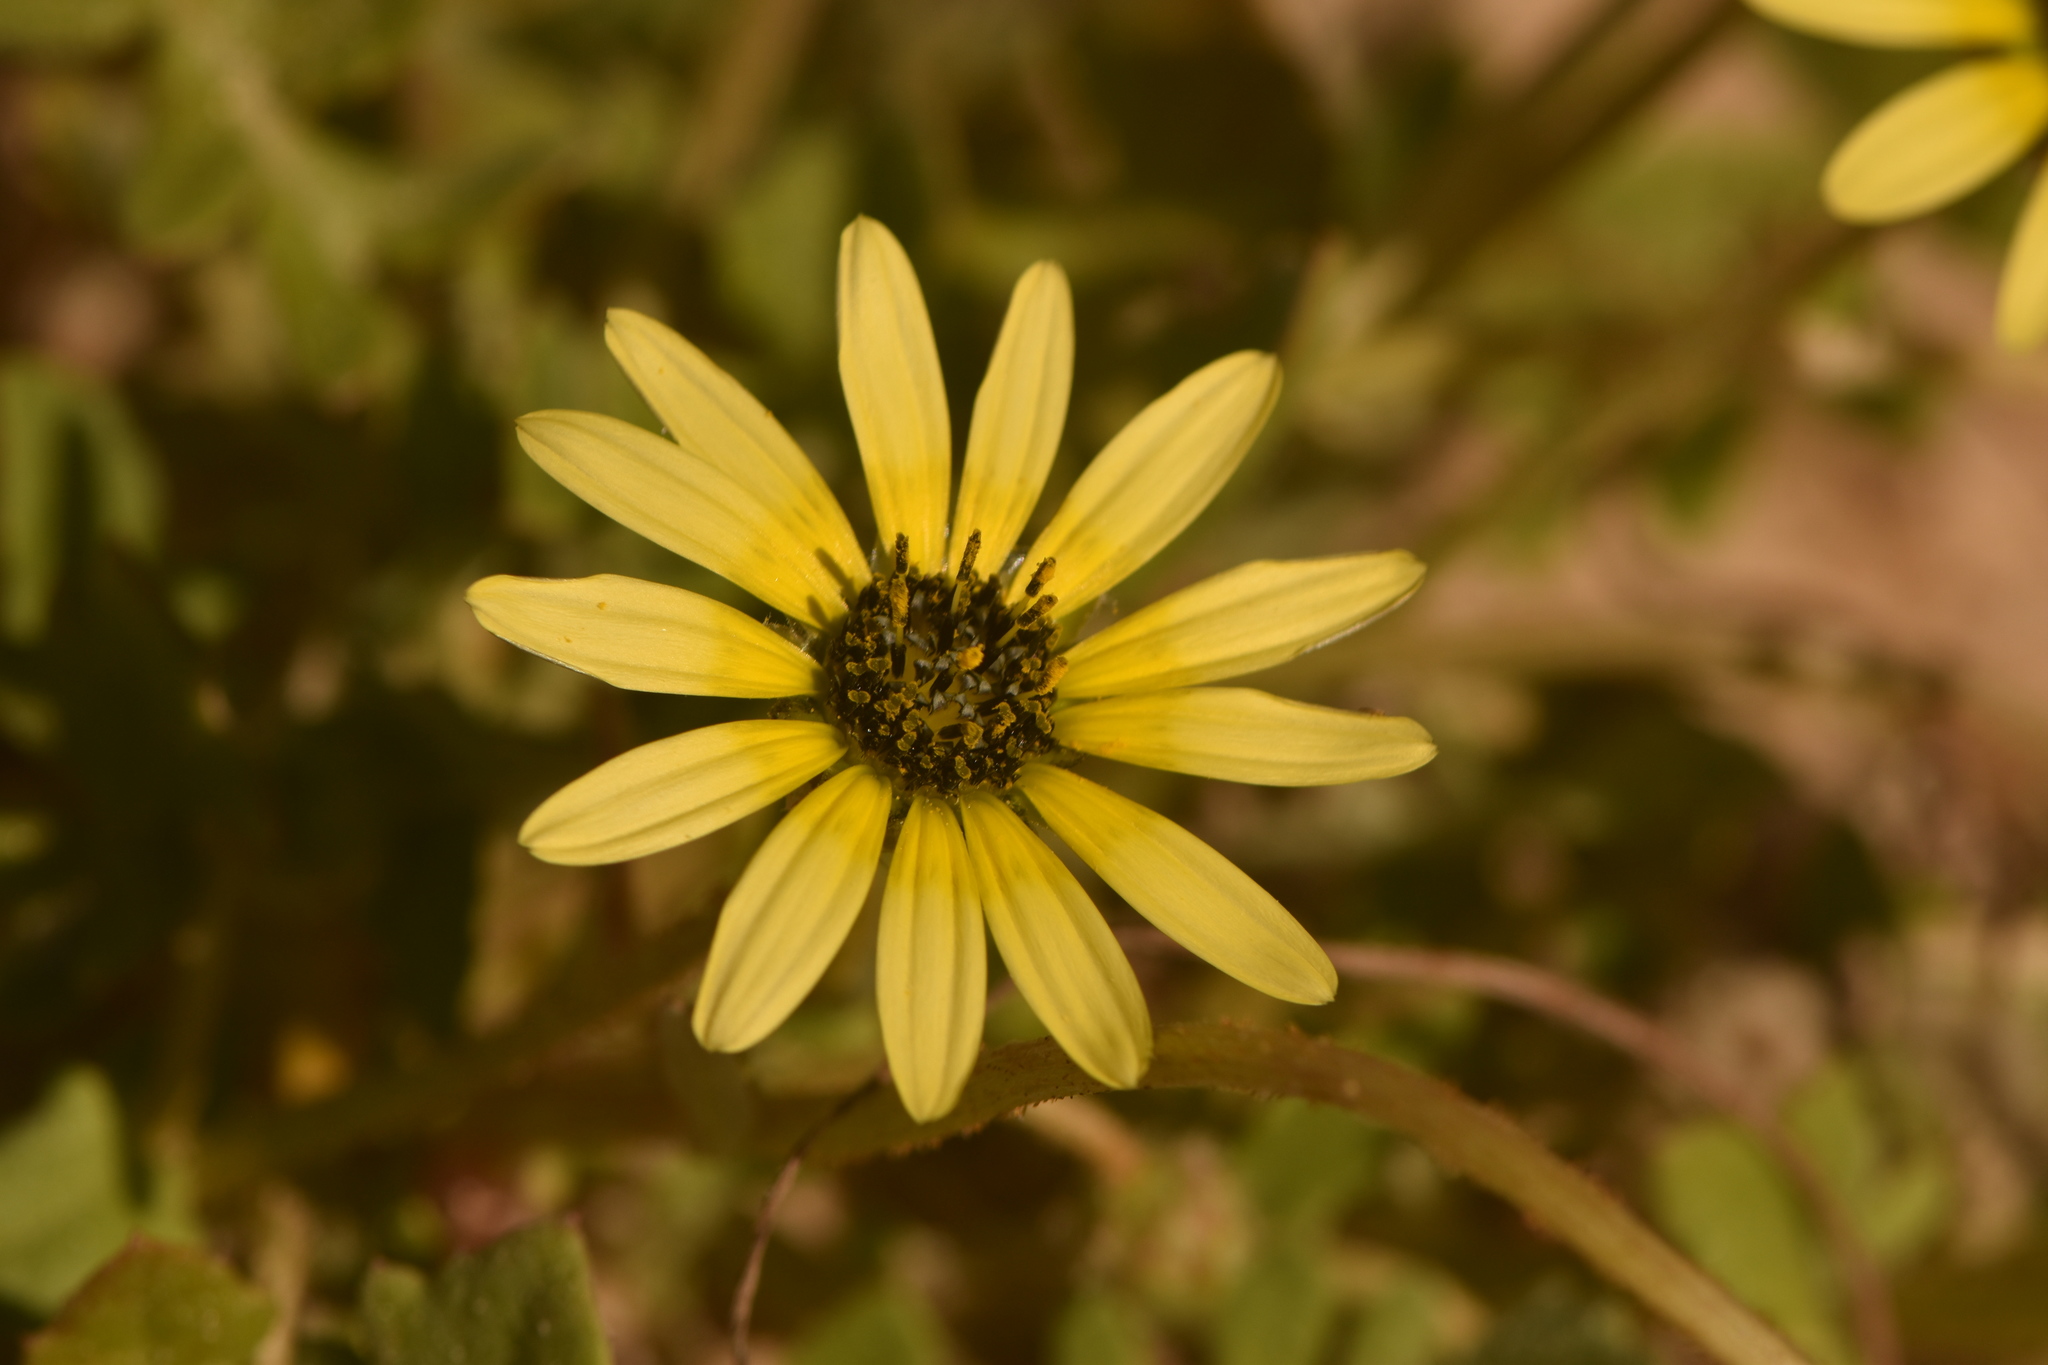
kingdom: Plantae
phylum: Tracheophyta
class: Magnoliopsida
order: Asterales
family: Asteraceae
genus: Arctotheca
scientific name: Arctotheca calendula
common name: Capeweed
